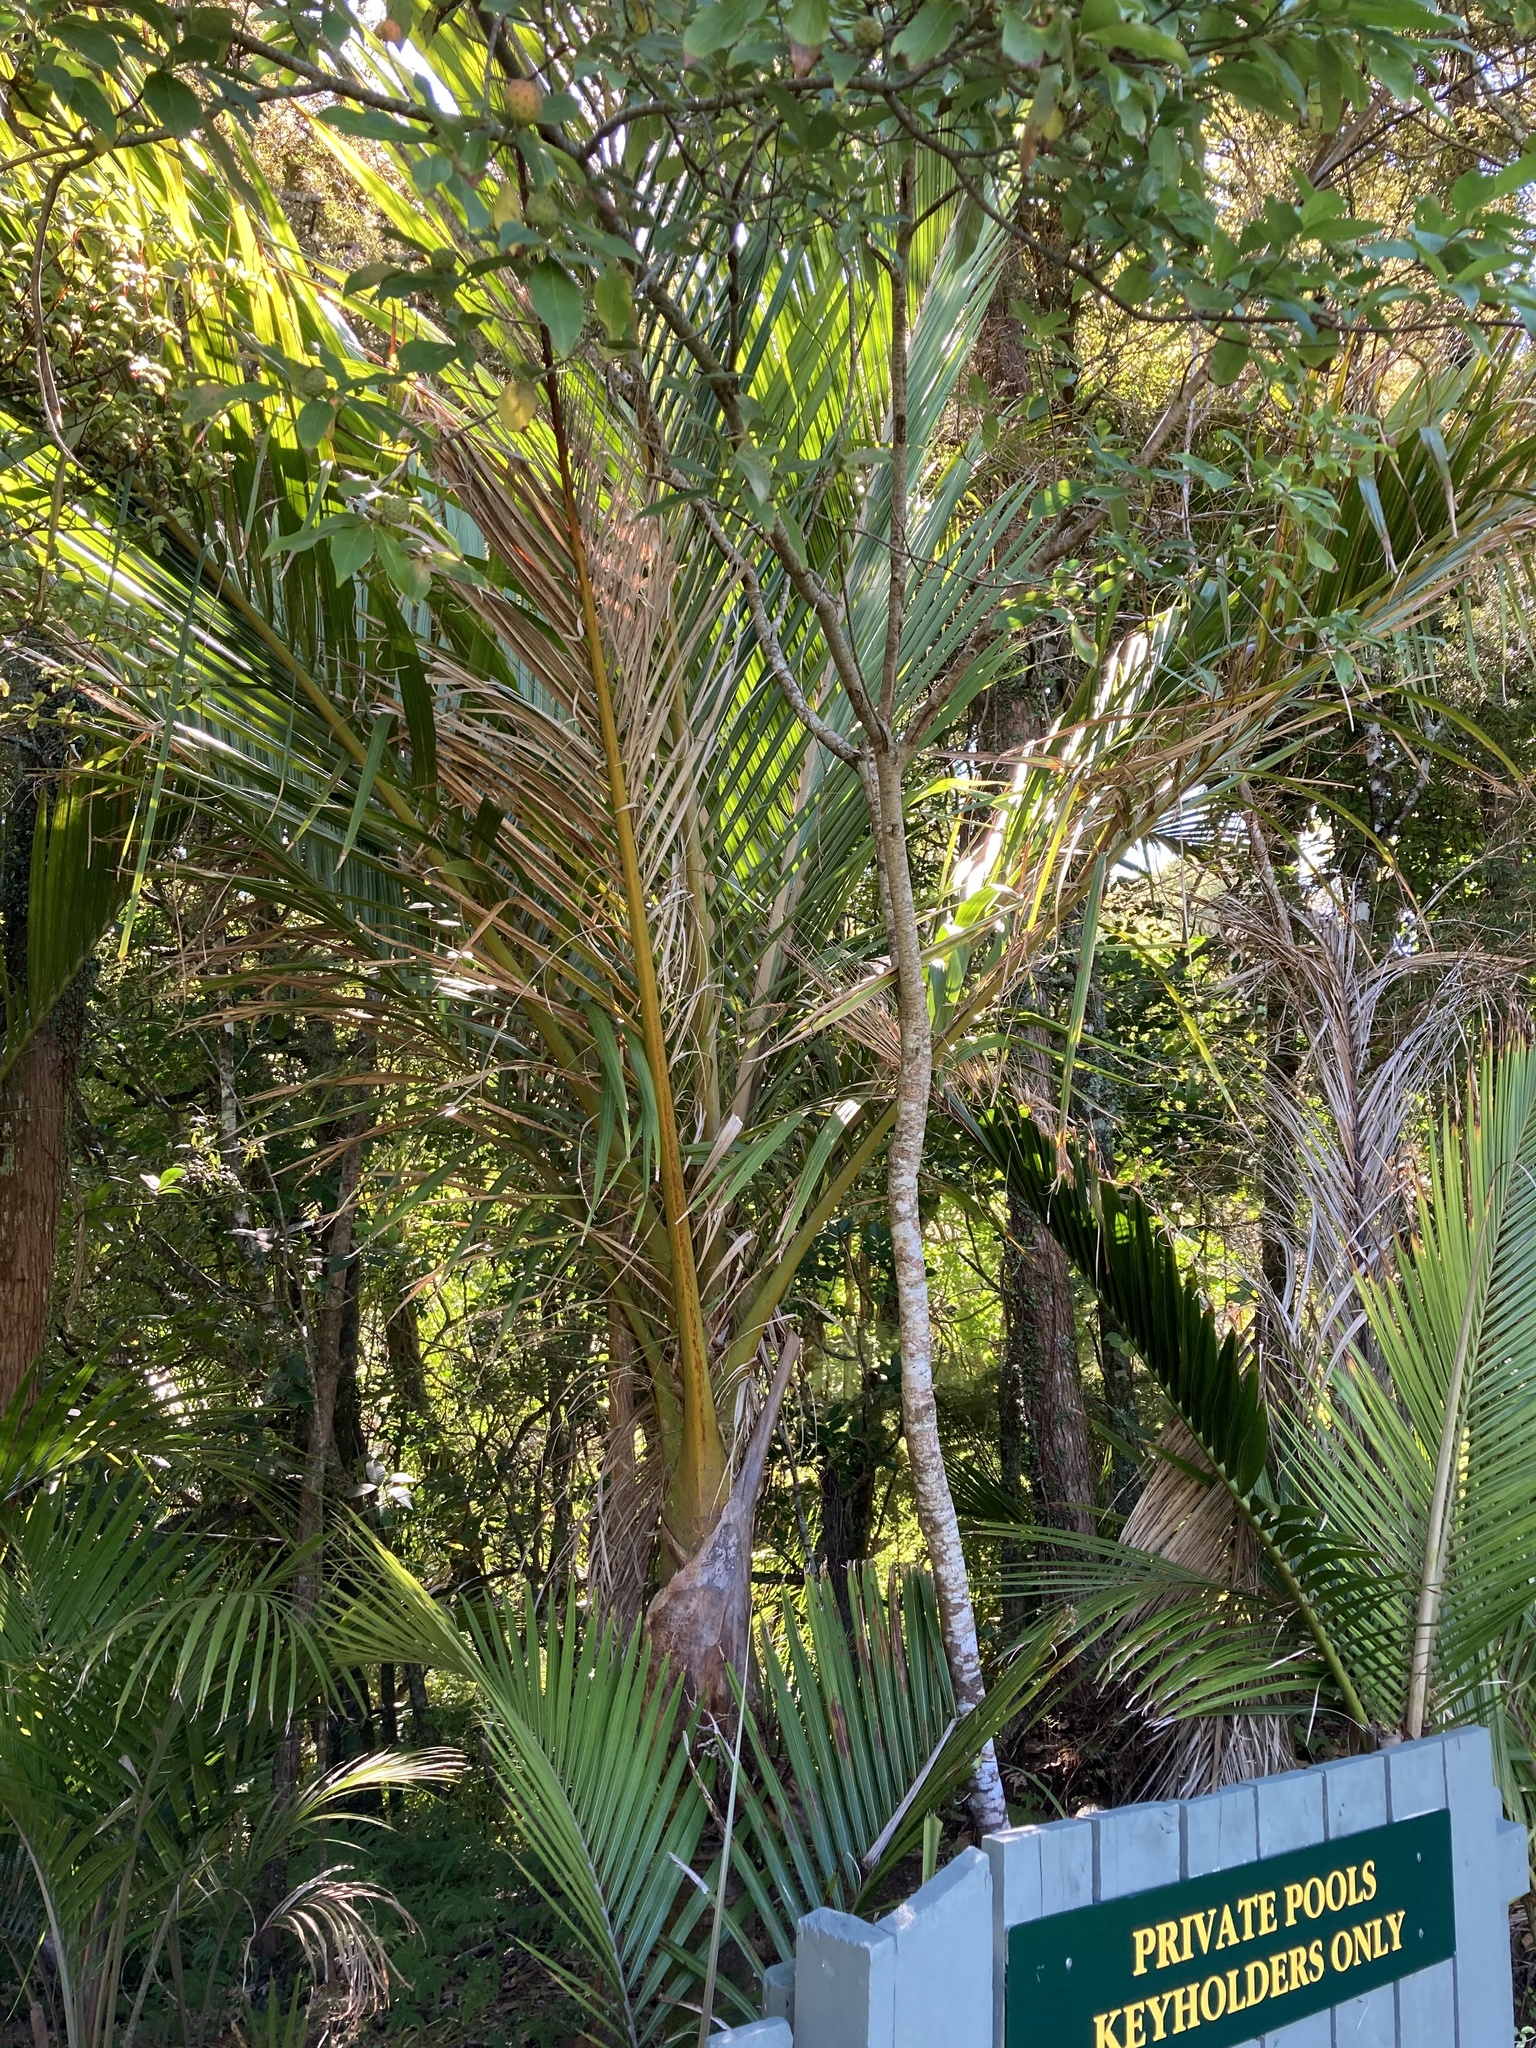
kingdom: Plantae
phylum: Tracheophyta
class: Liliopsida
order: Arecales
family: Arecaceae
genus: Rhopalostylis
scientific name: Rhopalostylis sapida
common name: Feather-duster palm
